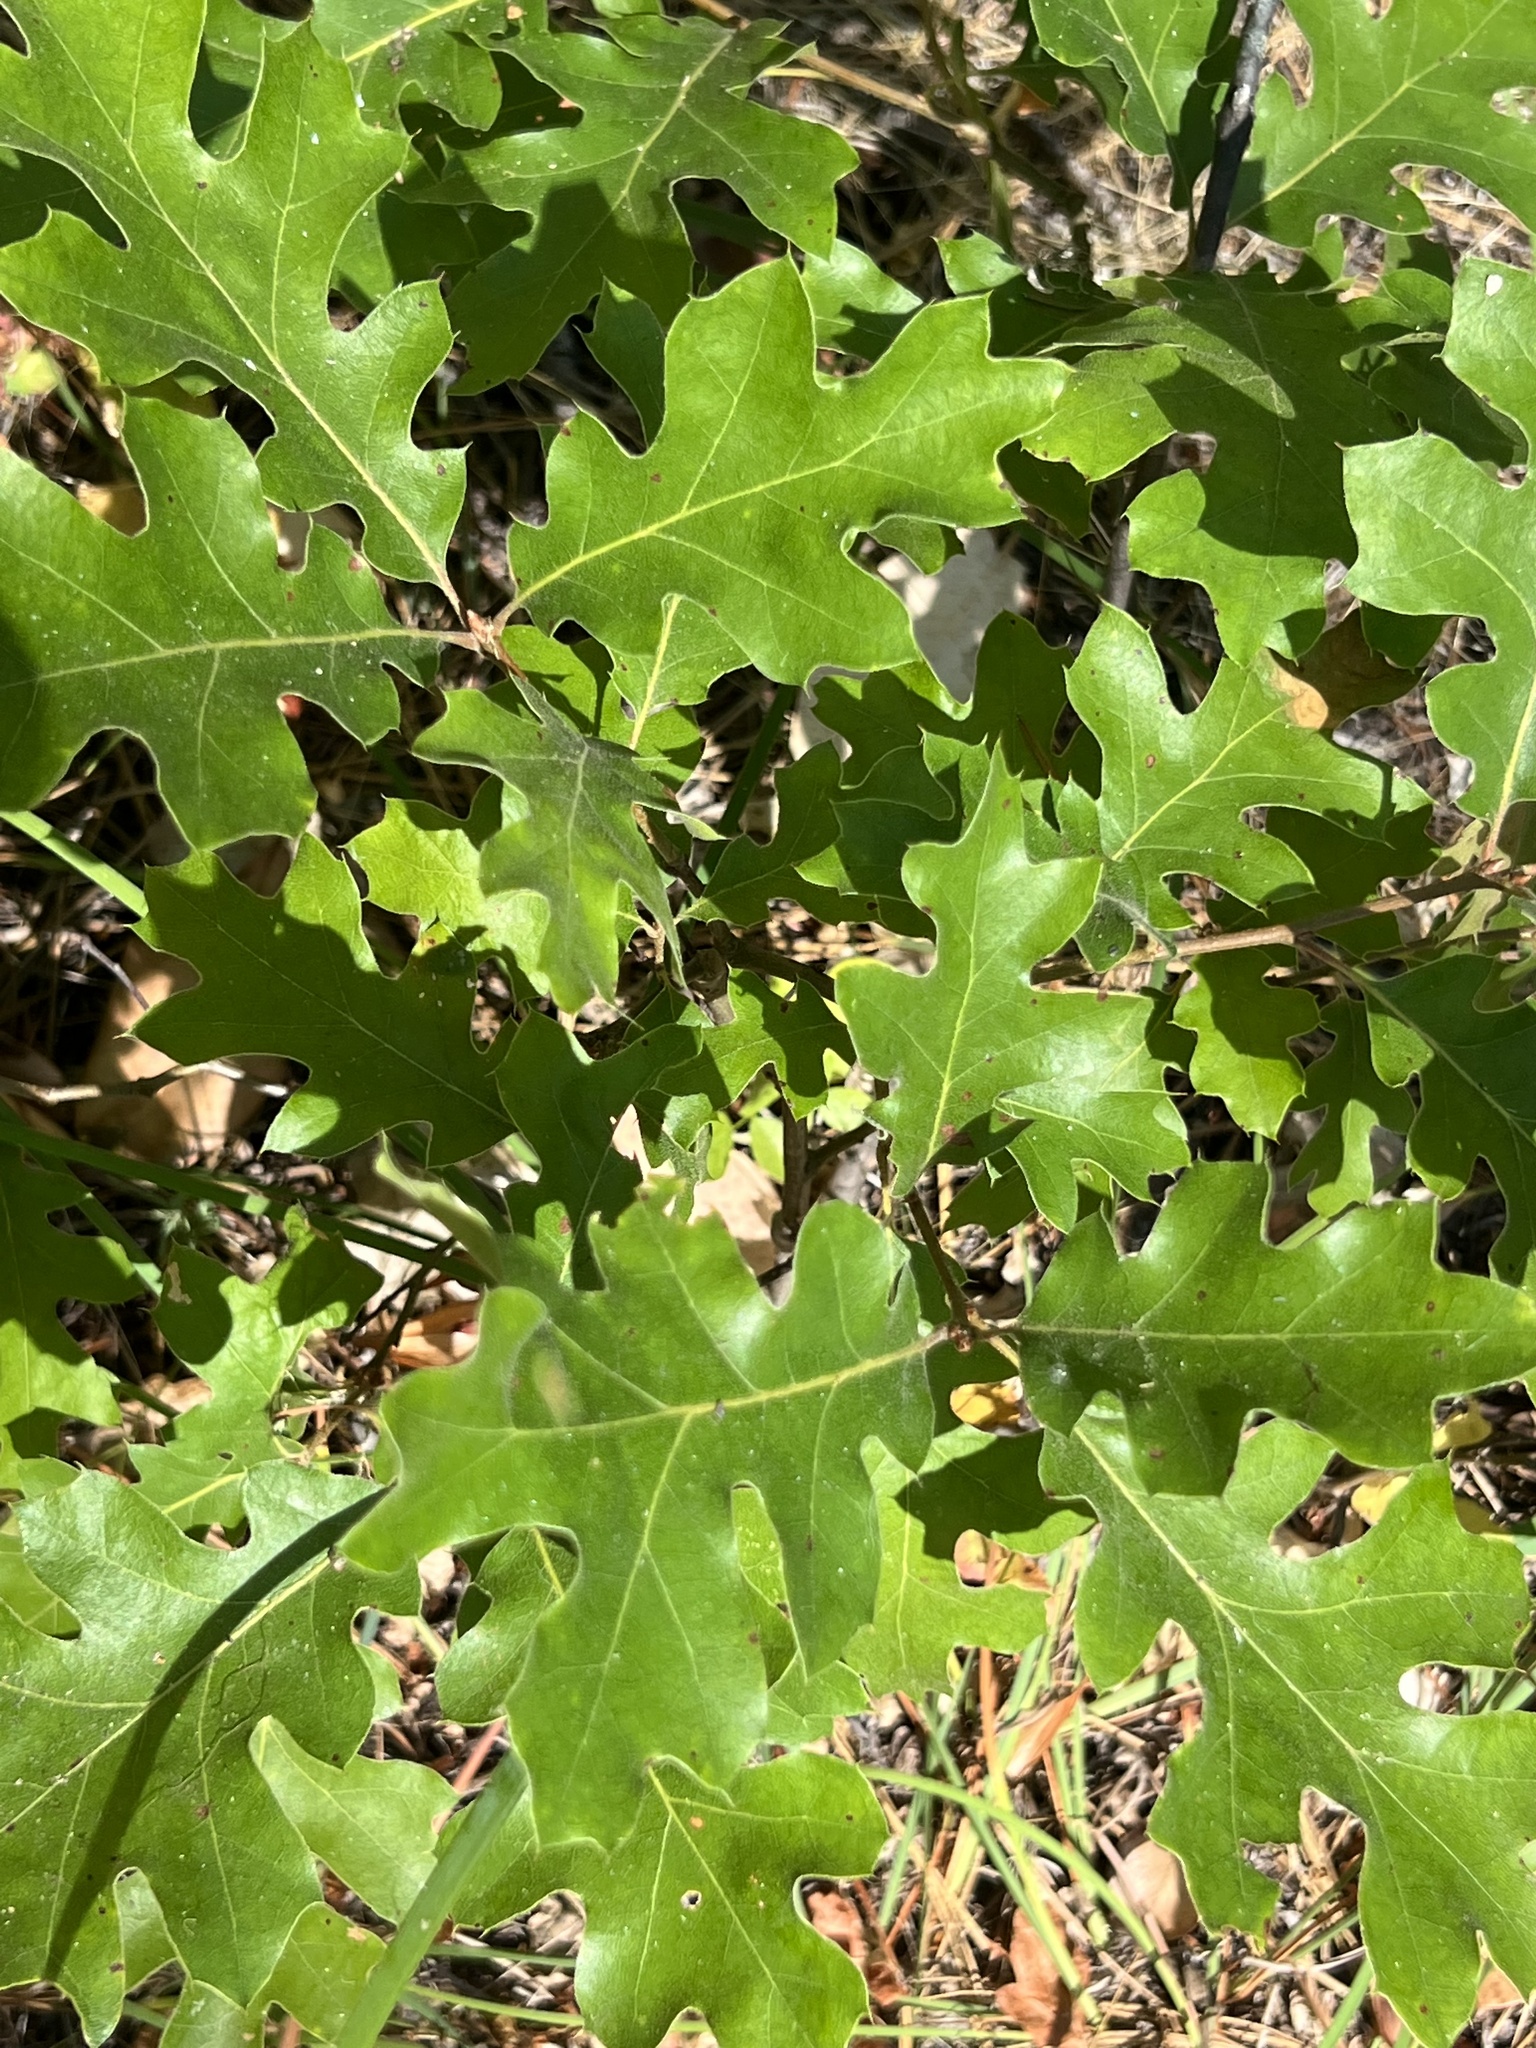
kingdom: Plantae
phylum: Tracheophyta
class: Magnoliopsida
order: Fagales
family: Fagaceae
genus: Quercus
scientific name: Quercus kelloggii
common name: California black oak
